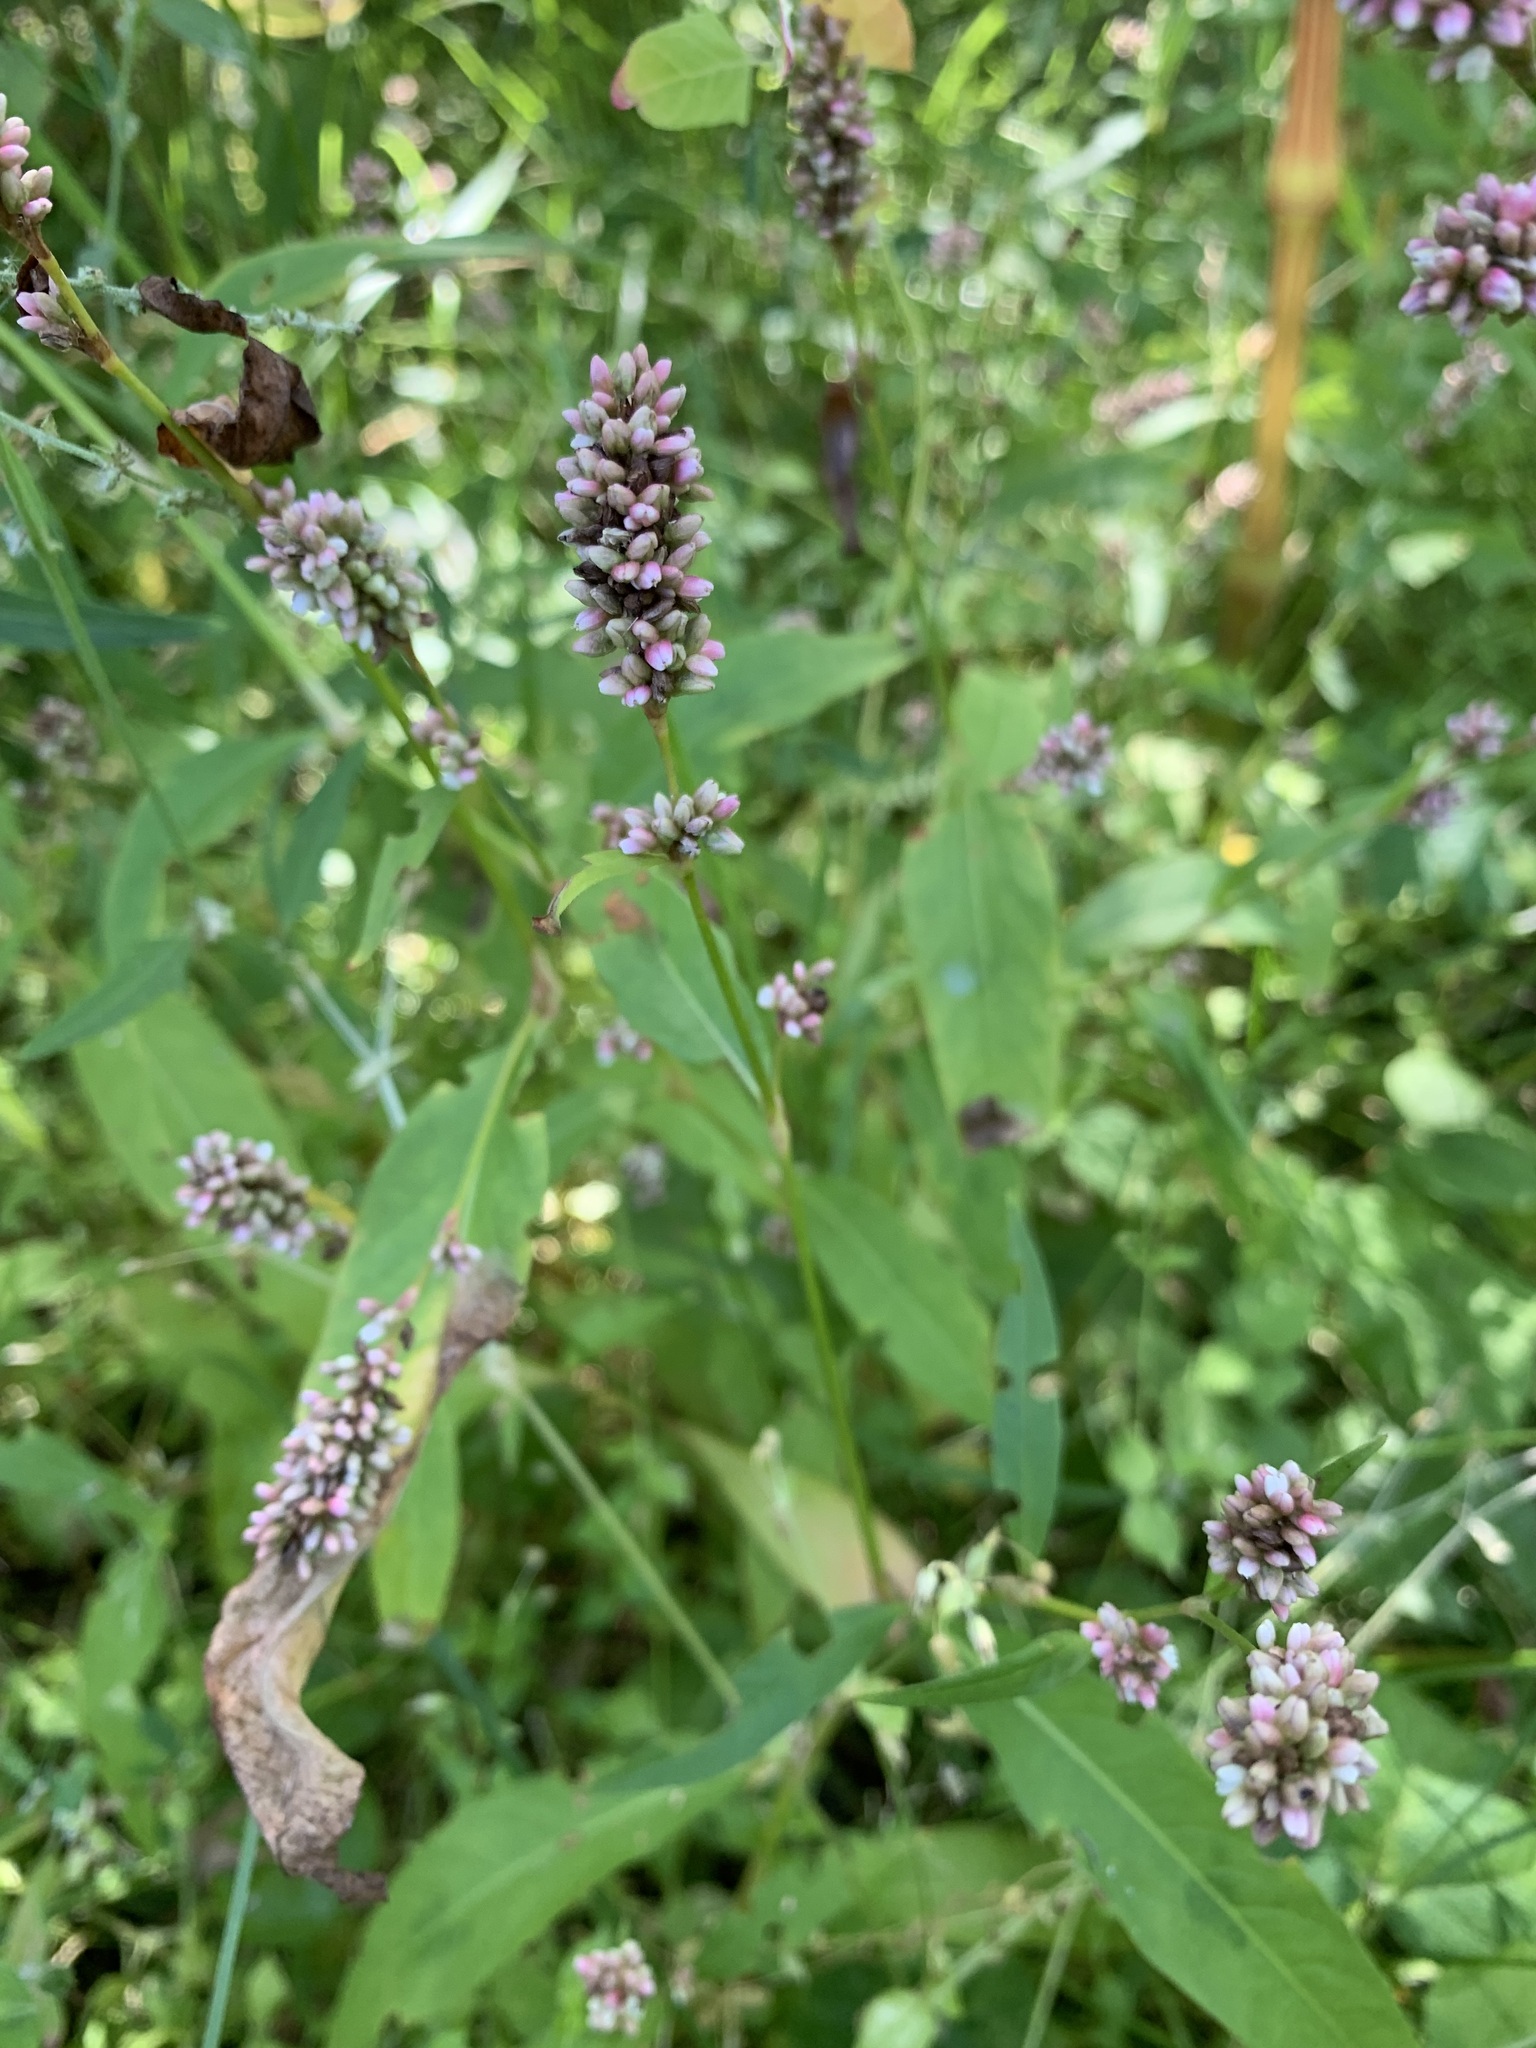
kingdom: Plantae
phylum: Tracheophyta
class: Magnoliopsida
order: Caryophyllales
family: Polygonaceae
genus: Persicaria
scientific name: Persicaria maculosa
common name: Redshank
